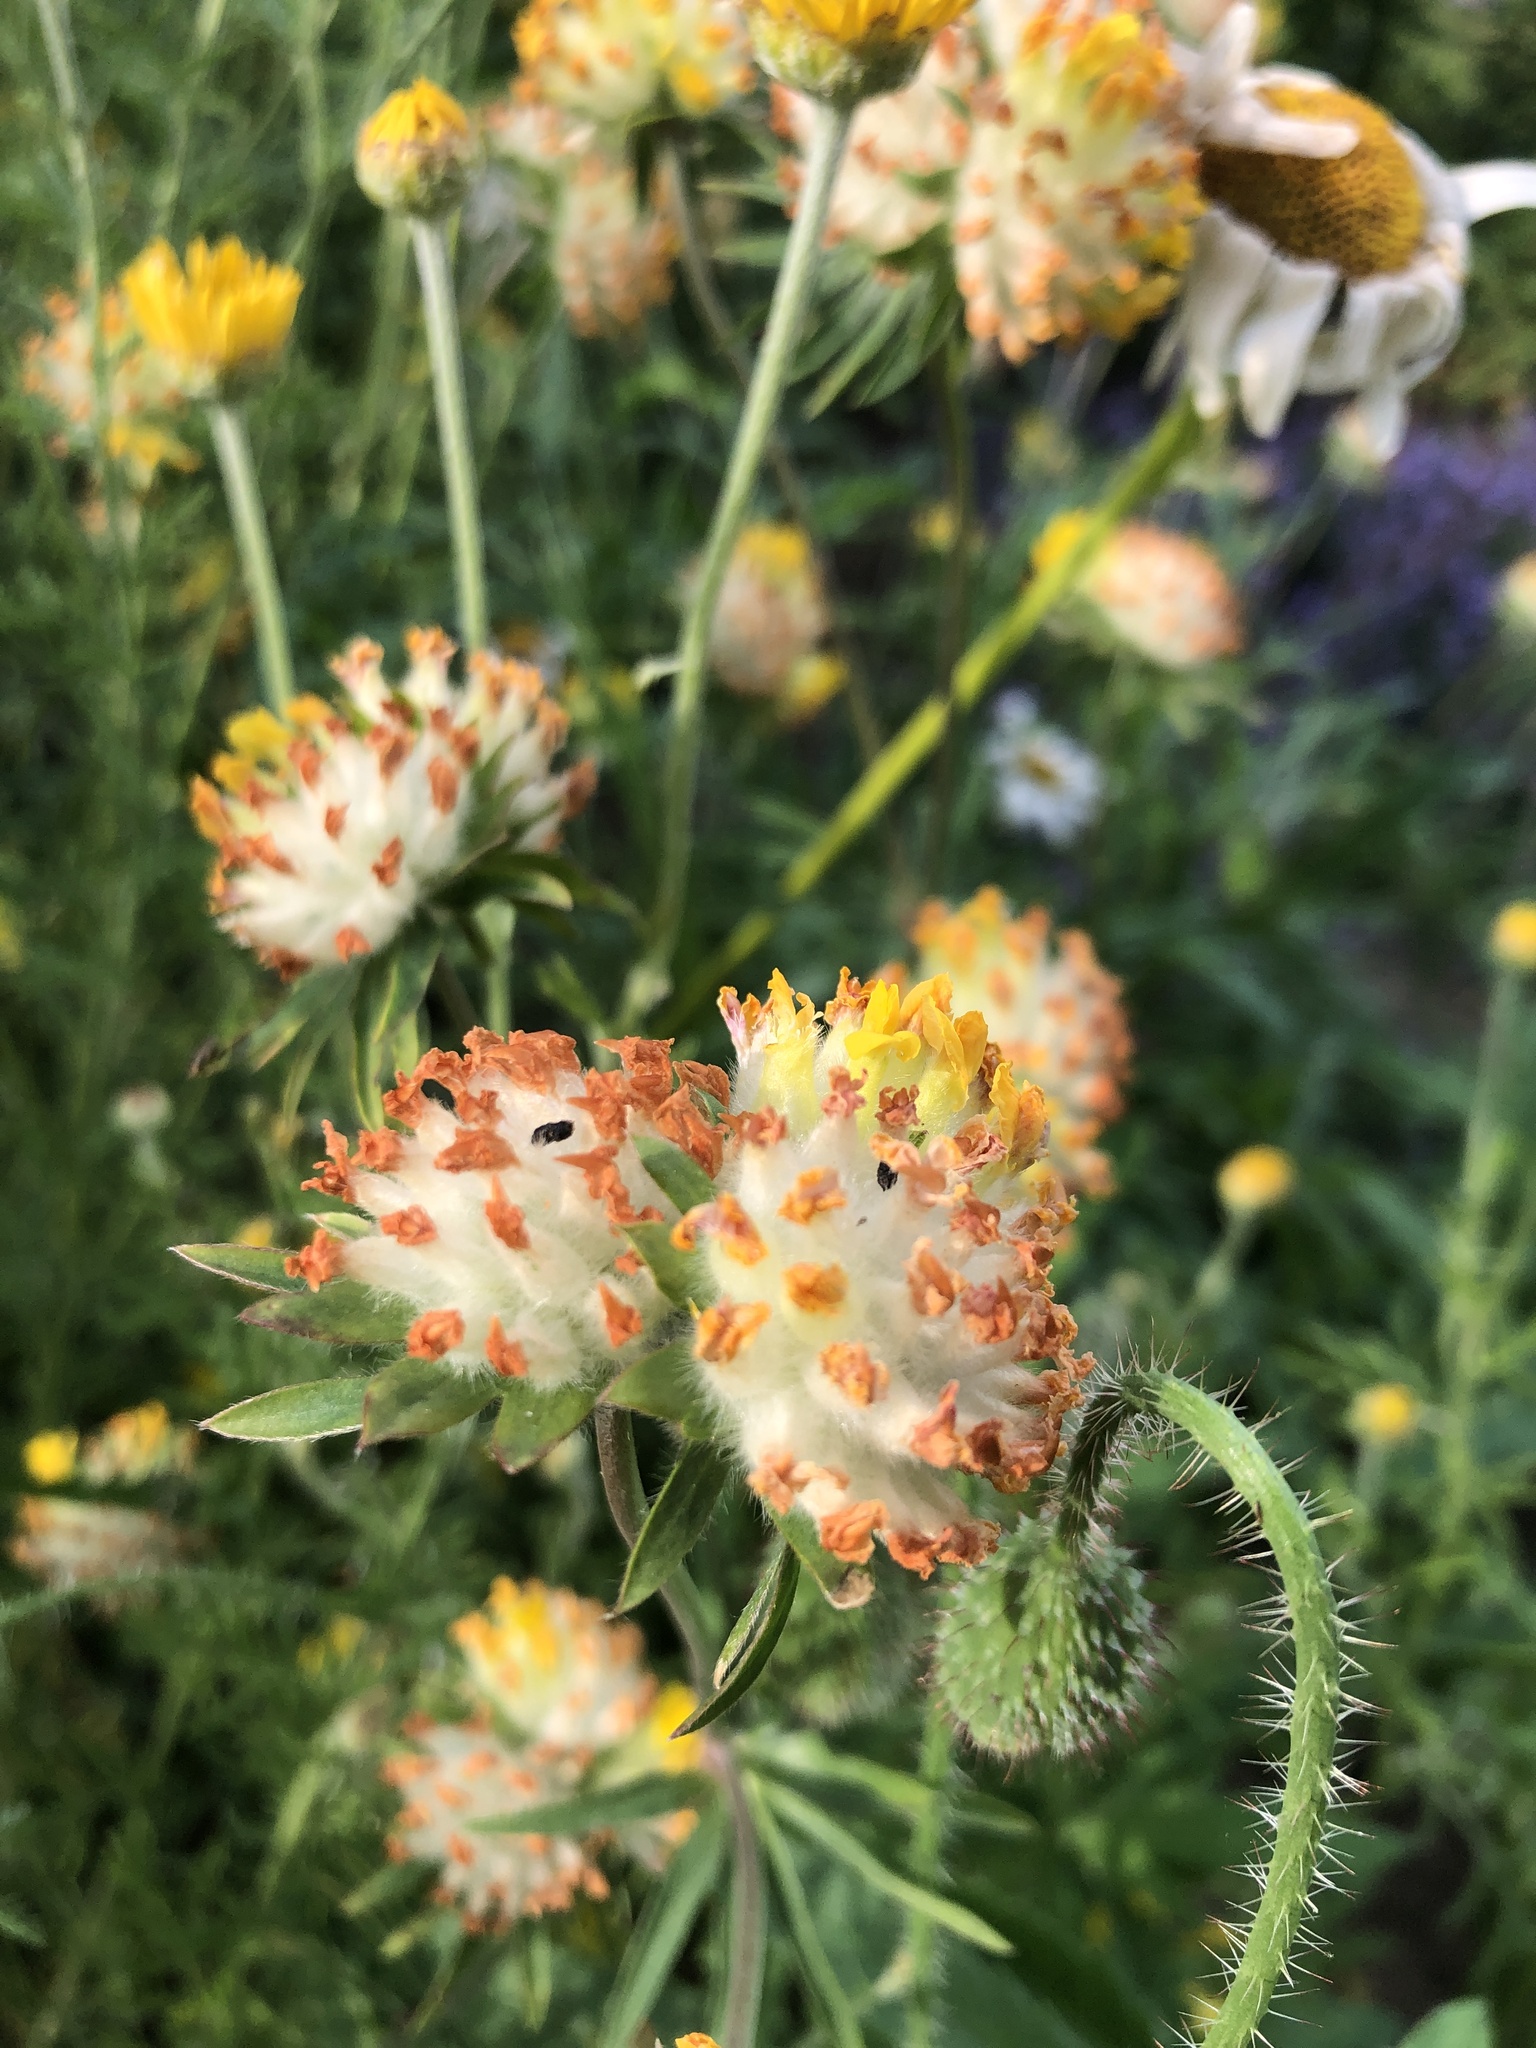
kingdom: Plantae
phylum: Tracheophyta
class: Magnoliopsida
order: Fabales
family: Fabaceae
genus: Anthyllis
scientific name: Anthyllis vulneraria
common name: Kidney vetch
